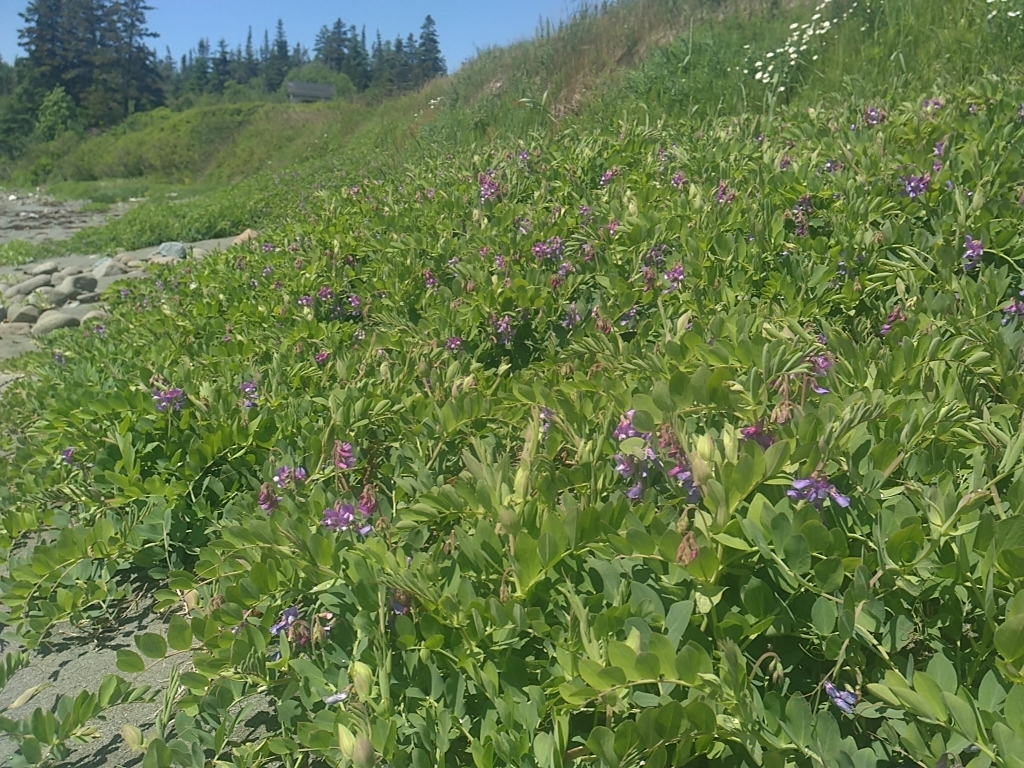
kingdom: Plantae
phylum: Tracheophyta
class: Magnoliopsida
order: Fabales
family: Fabaceae
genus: Lathyrus
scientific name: Lathyrus japonicus
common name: Sea pea
